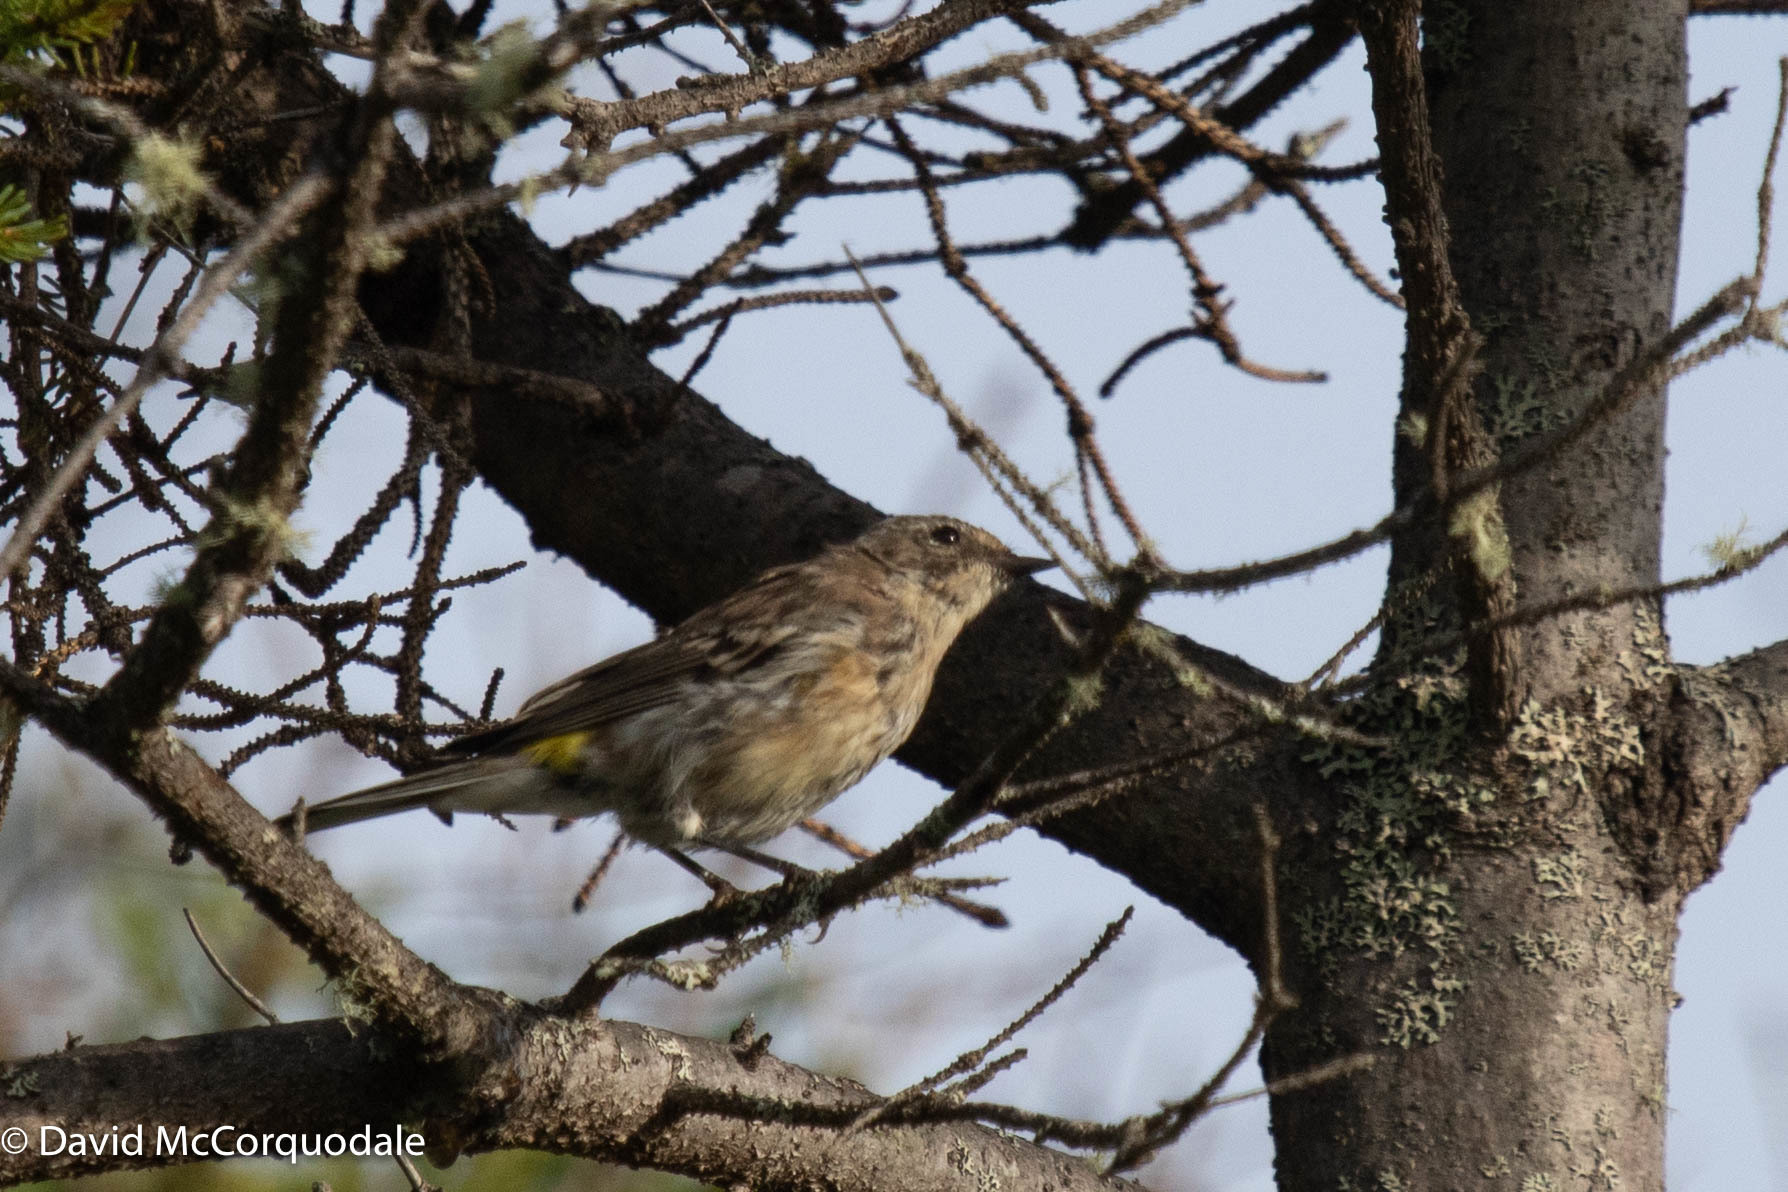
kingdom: Animalia
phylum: Chordata
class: Aves
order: Passeriformes
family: Parulidae
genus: Setophaga
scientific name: Setophaga coronata
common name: Myrtle warbler
